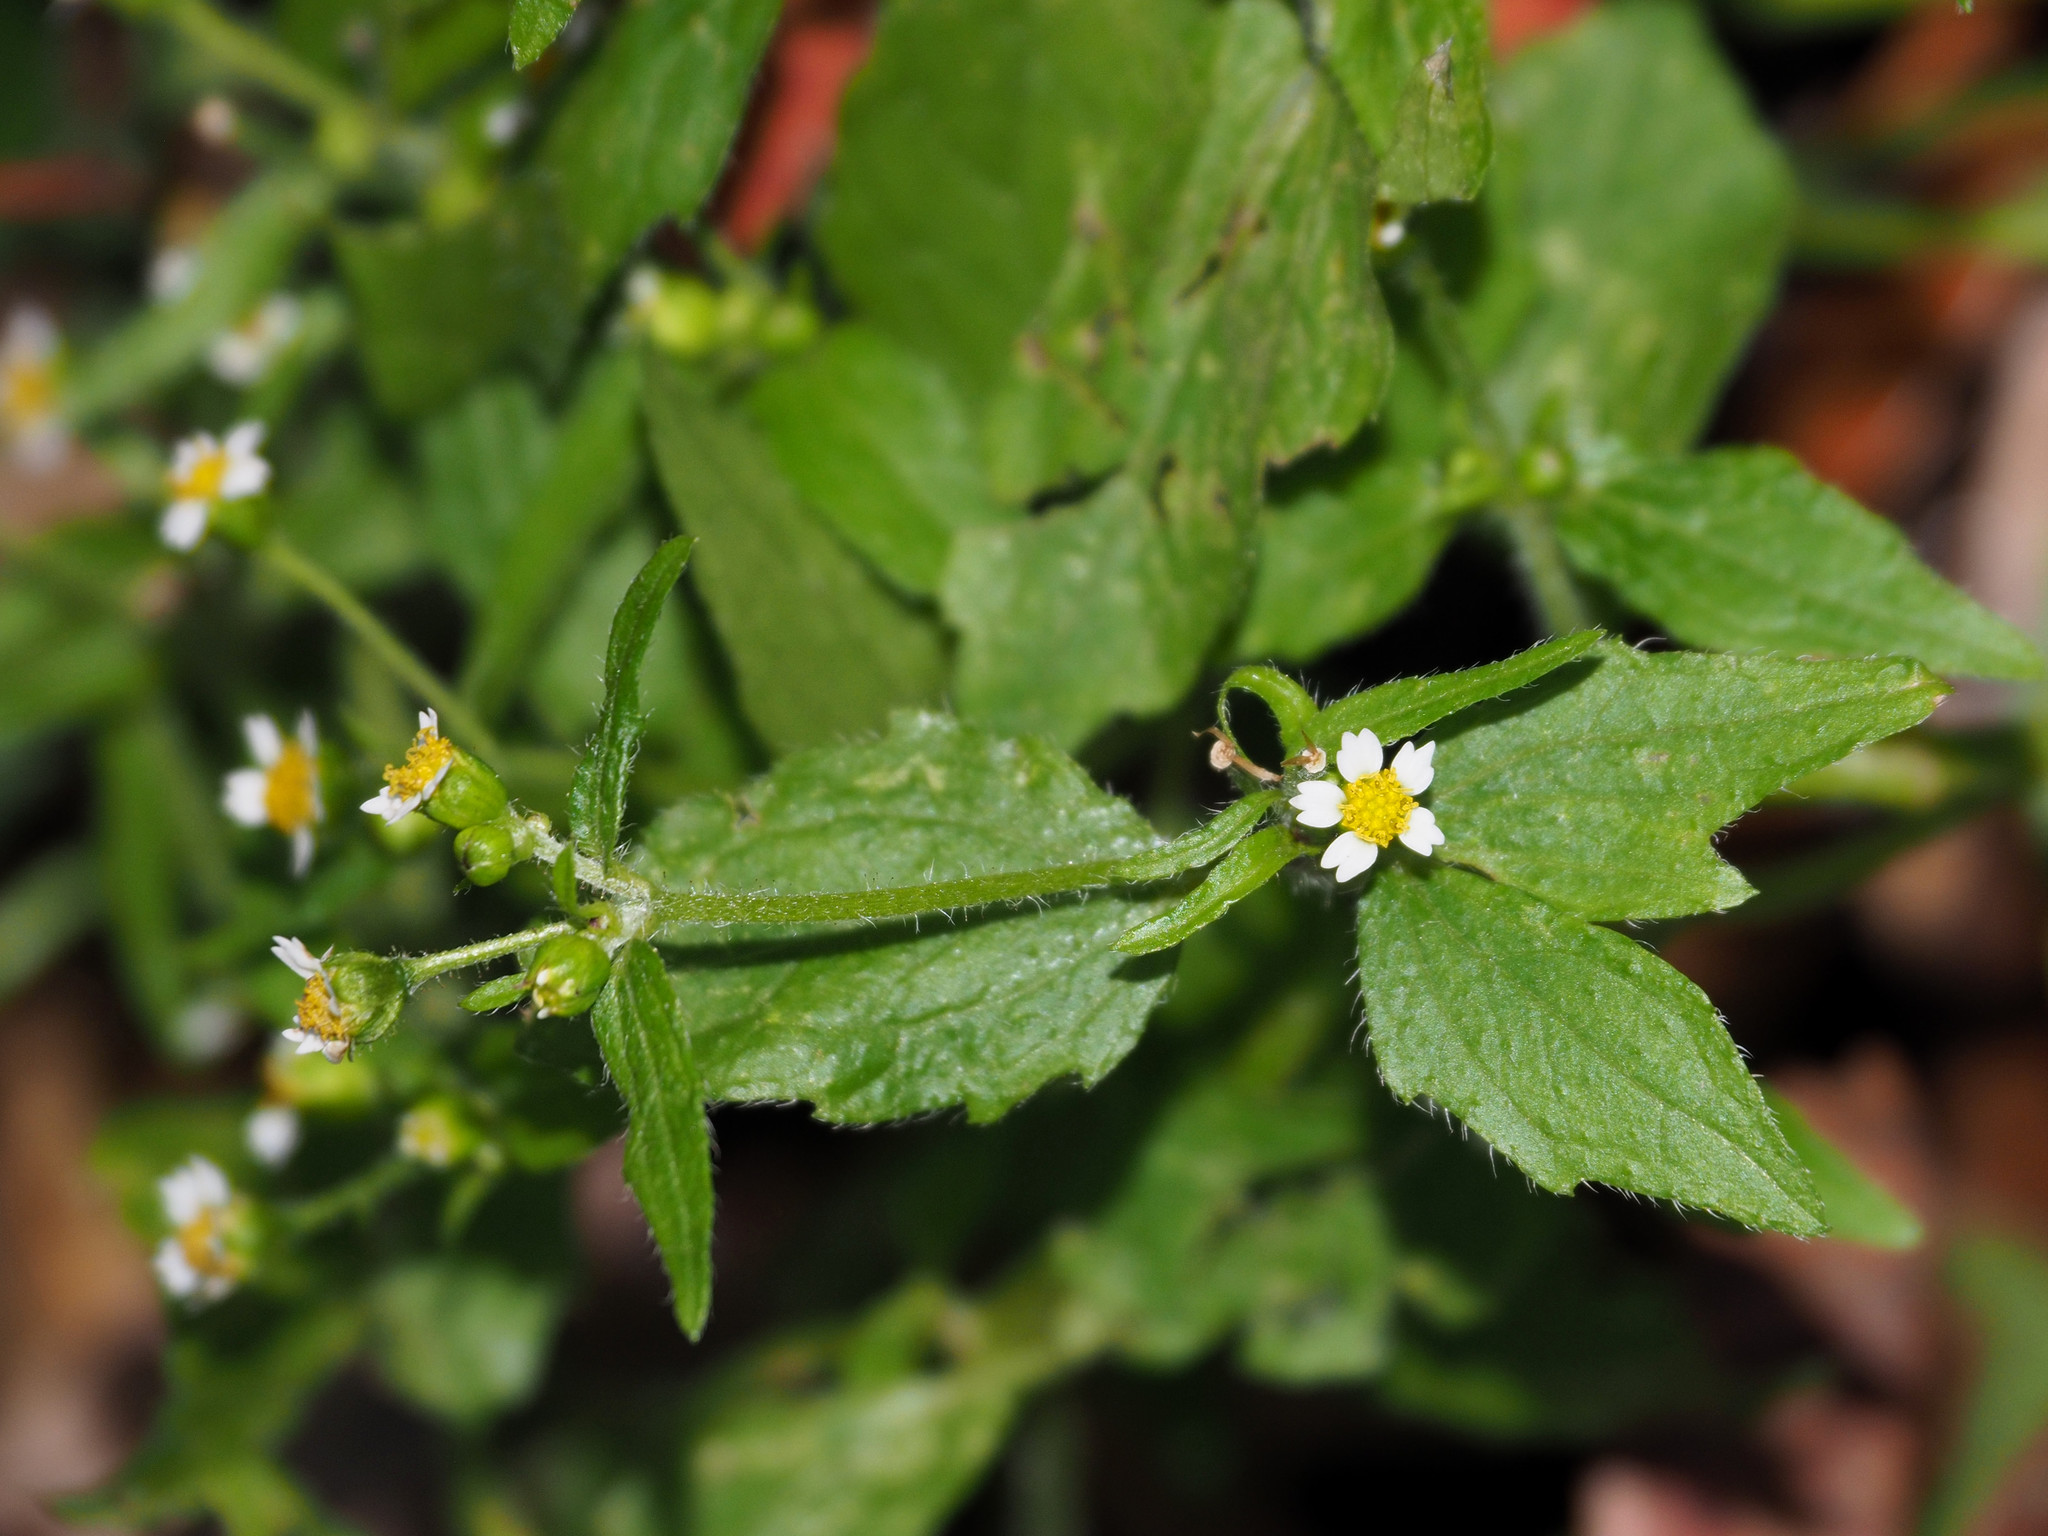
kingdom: Plantae
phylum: Tracheophyta
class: Magnoliopsida
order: Asterales
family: Asteraceae
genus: Galinsoga
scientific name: Galinsoga quadriradiata
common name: Shaggy soldier
